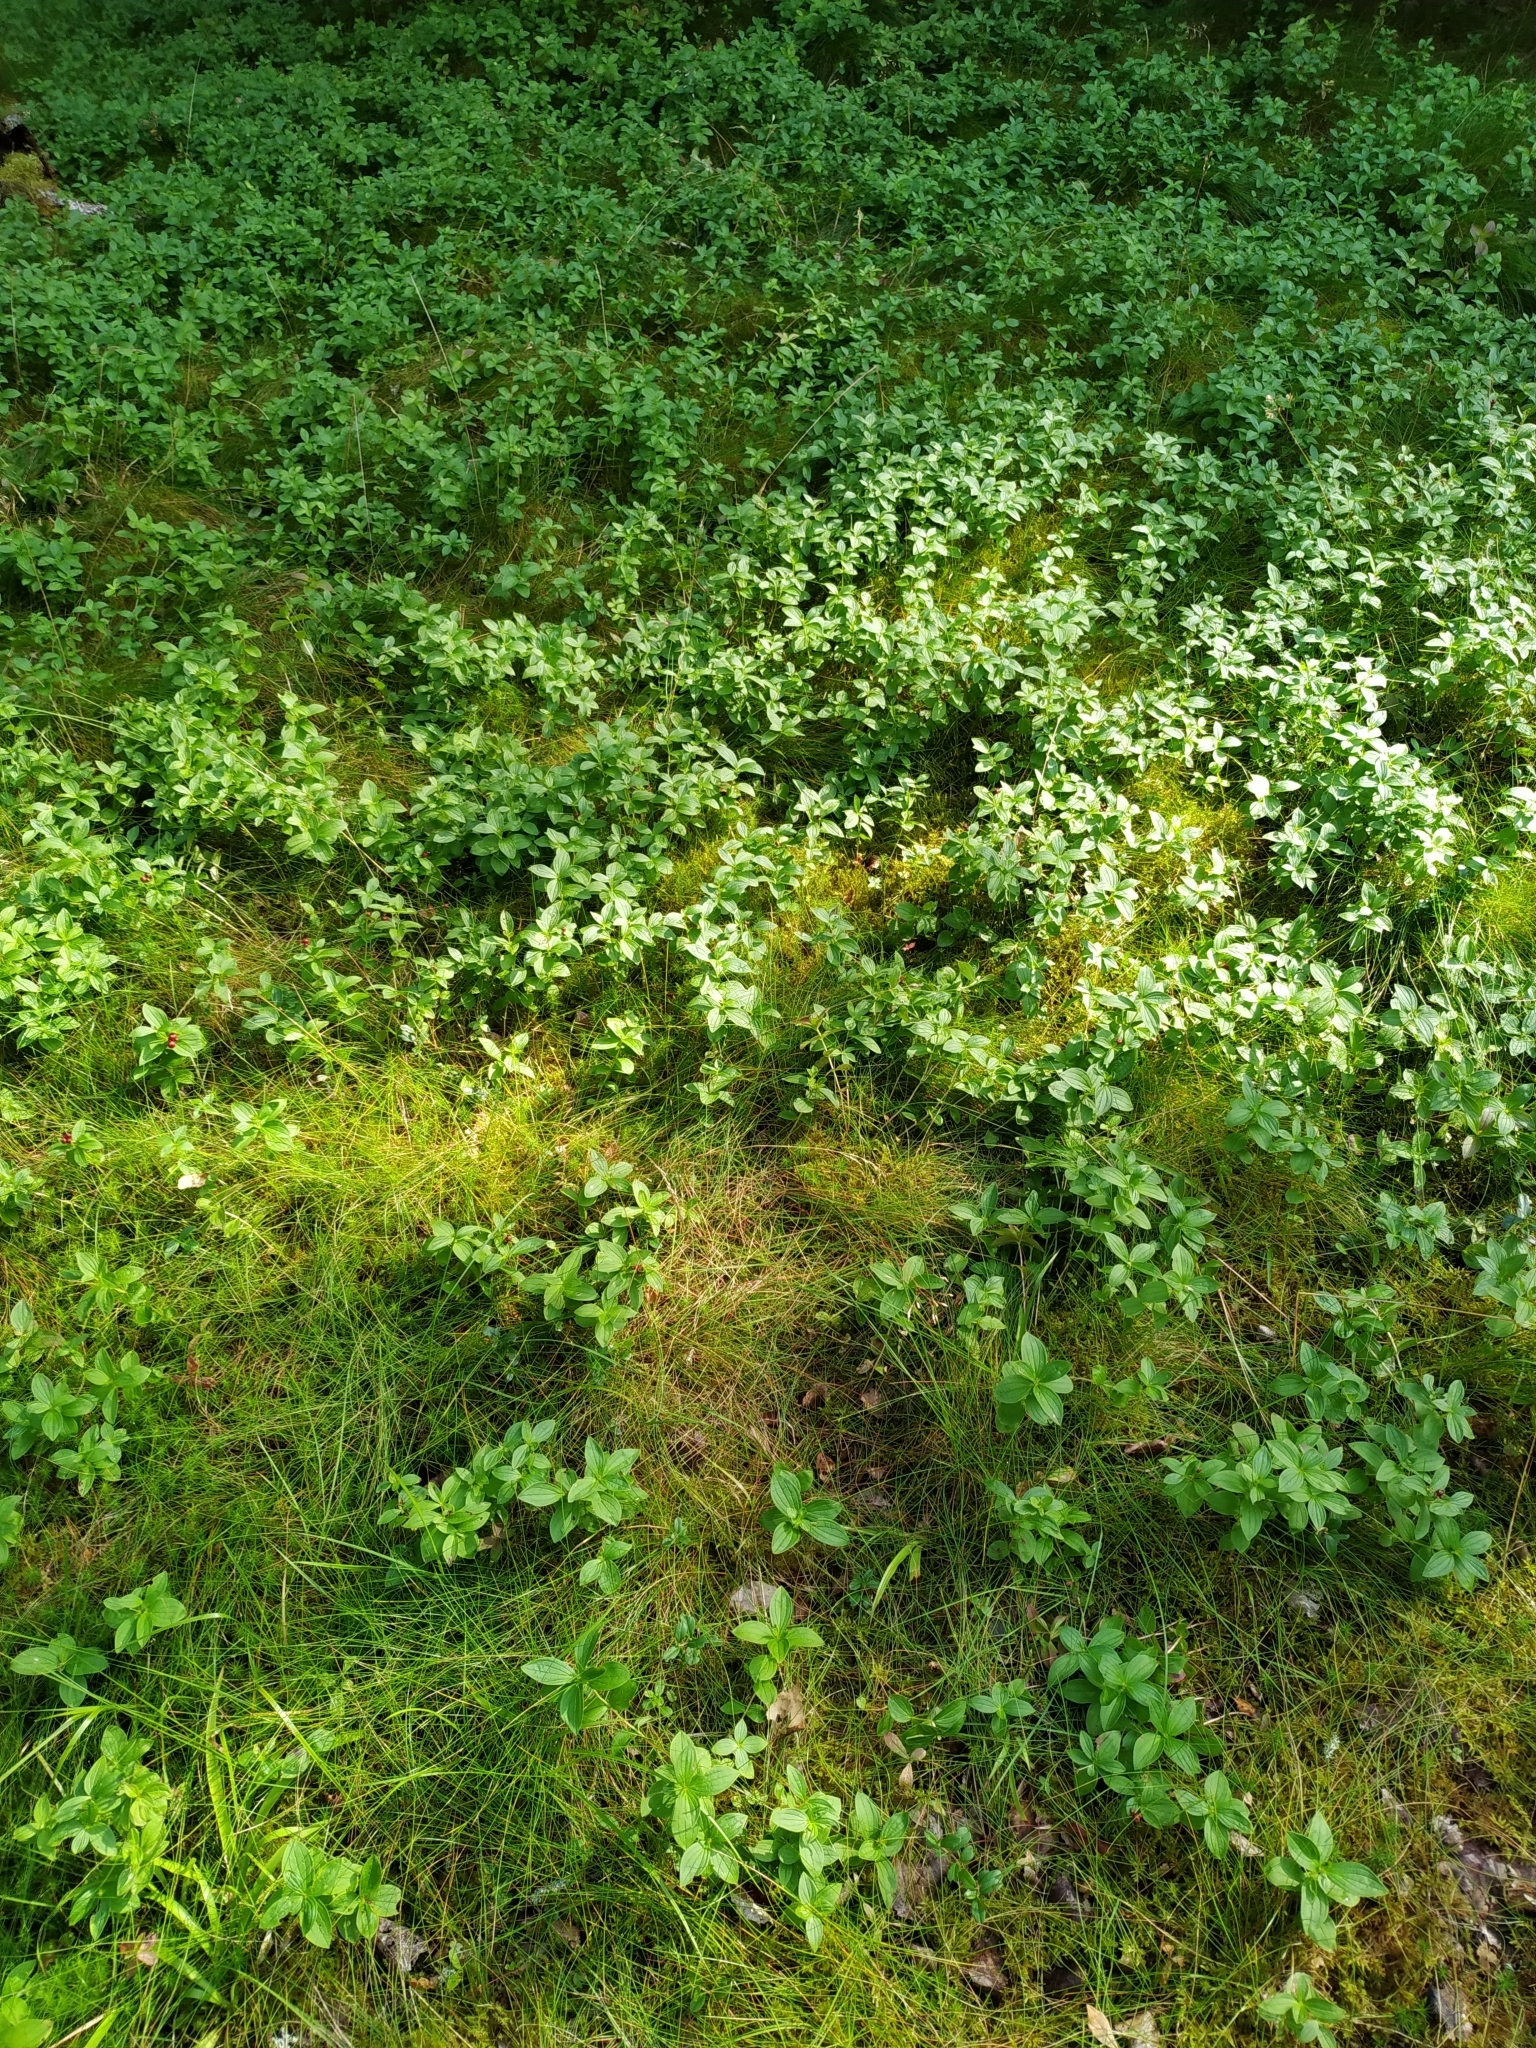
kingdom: Plantae
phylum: Tracheophyta
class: Magnoliopsida
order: Cornales
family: Cornaceae
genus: Cornus
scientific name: Cornus suecica
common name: Dwarf cornel
